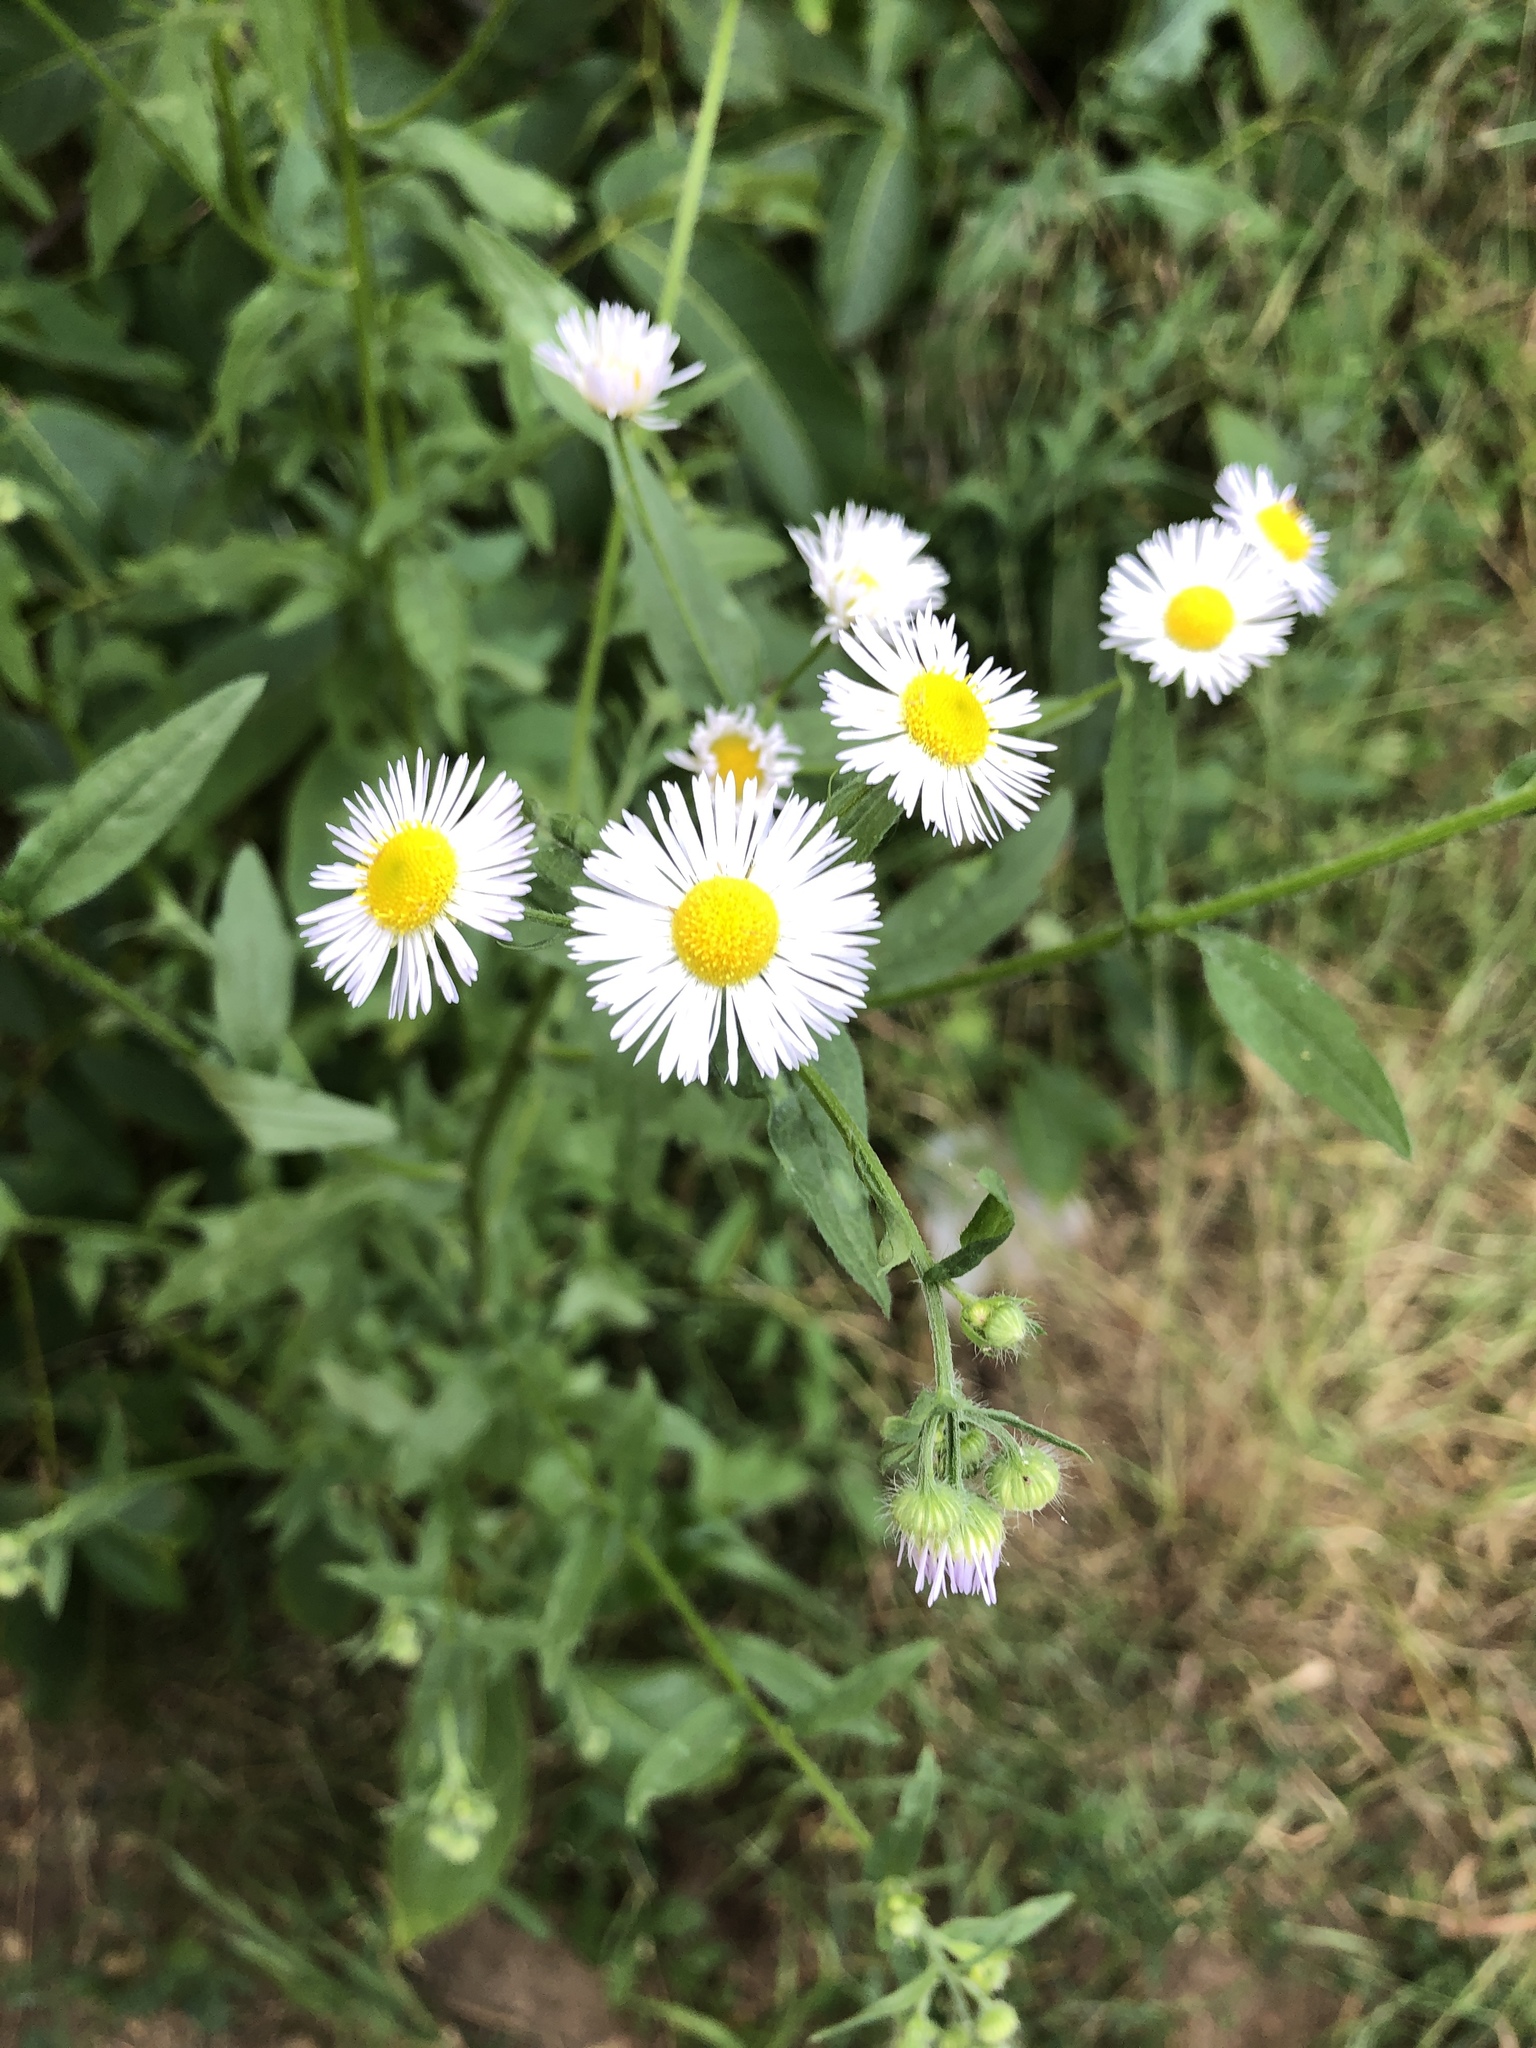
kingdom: Plantae
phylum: Tracheophyta
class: Magnoliopsida
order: Asterales
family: Asteraceae
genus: Erigeron
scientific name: Erigeron annuus
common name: Tall fleabane
